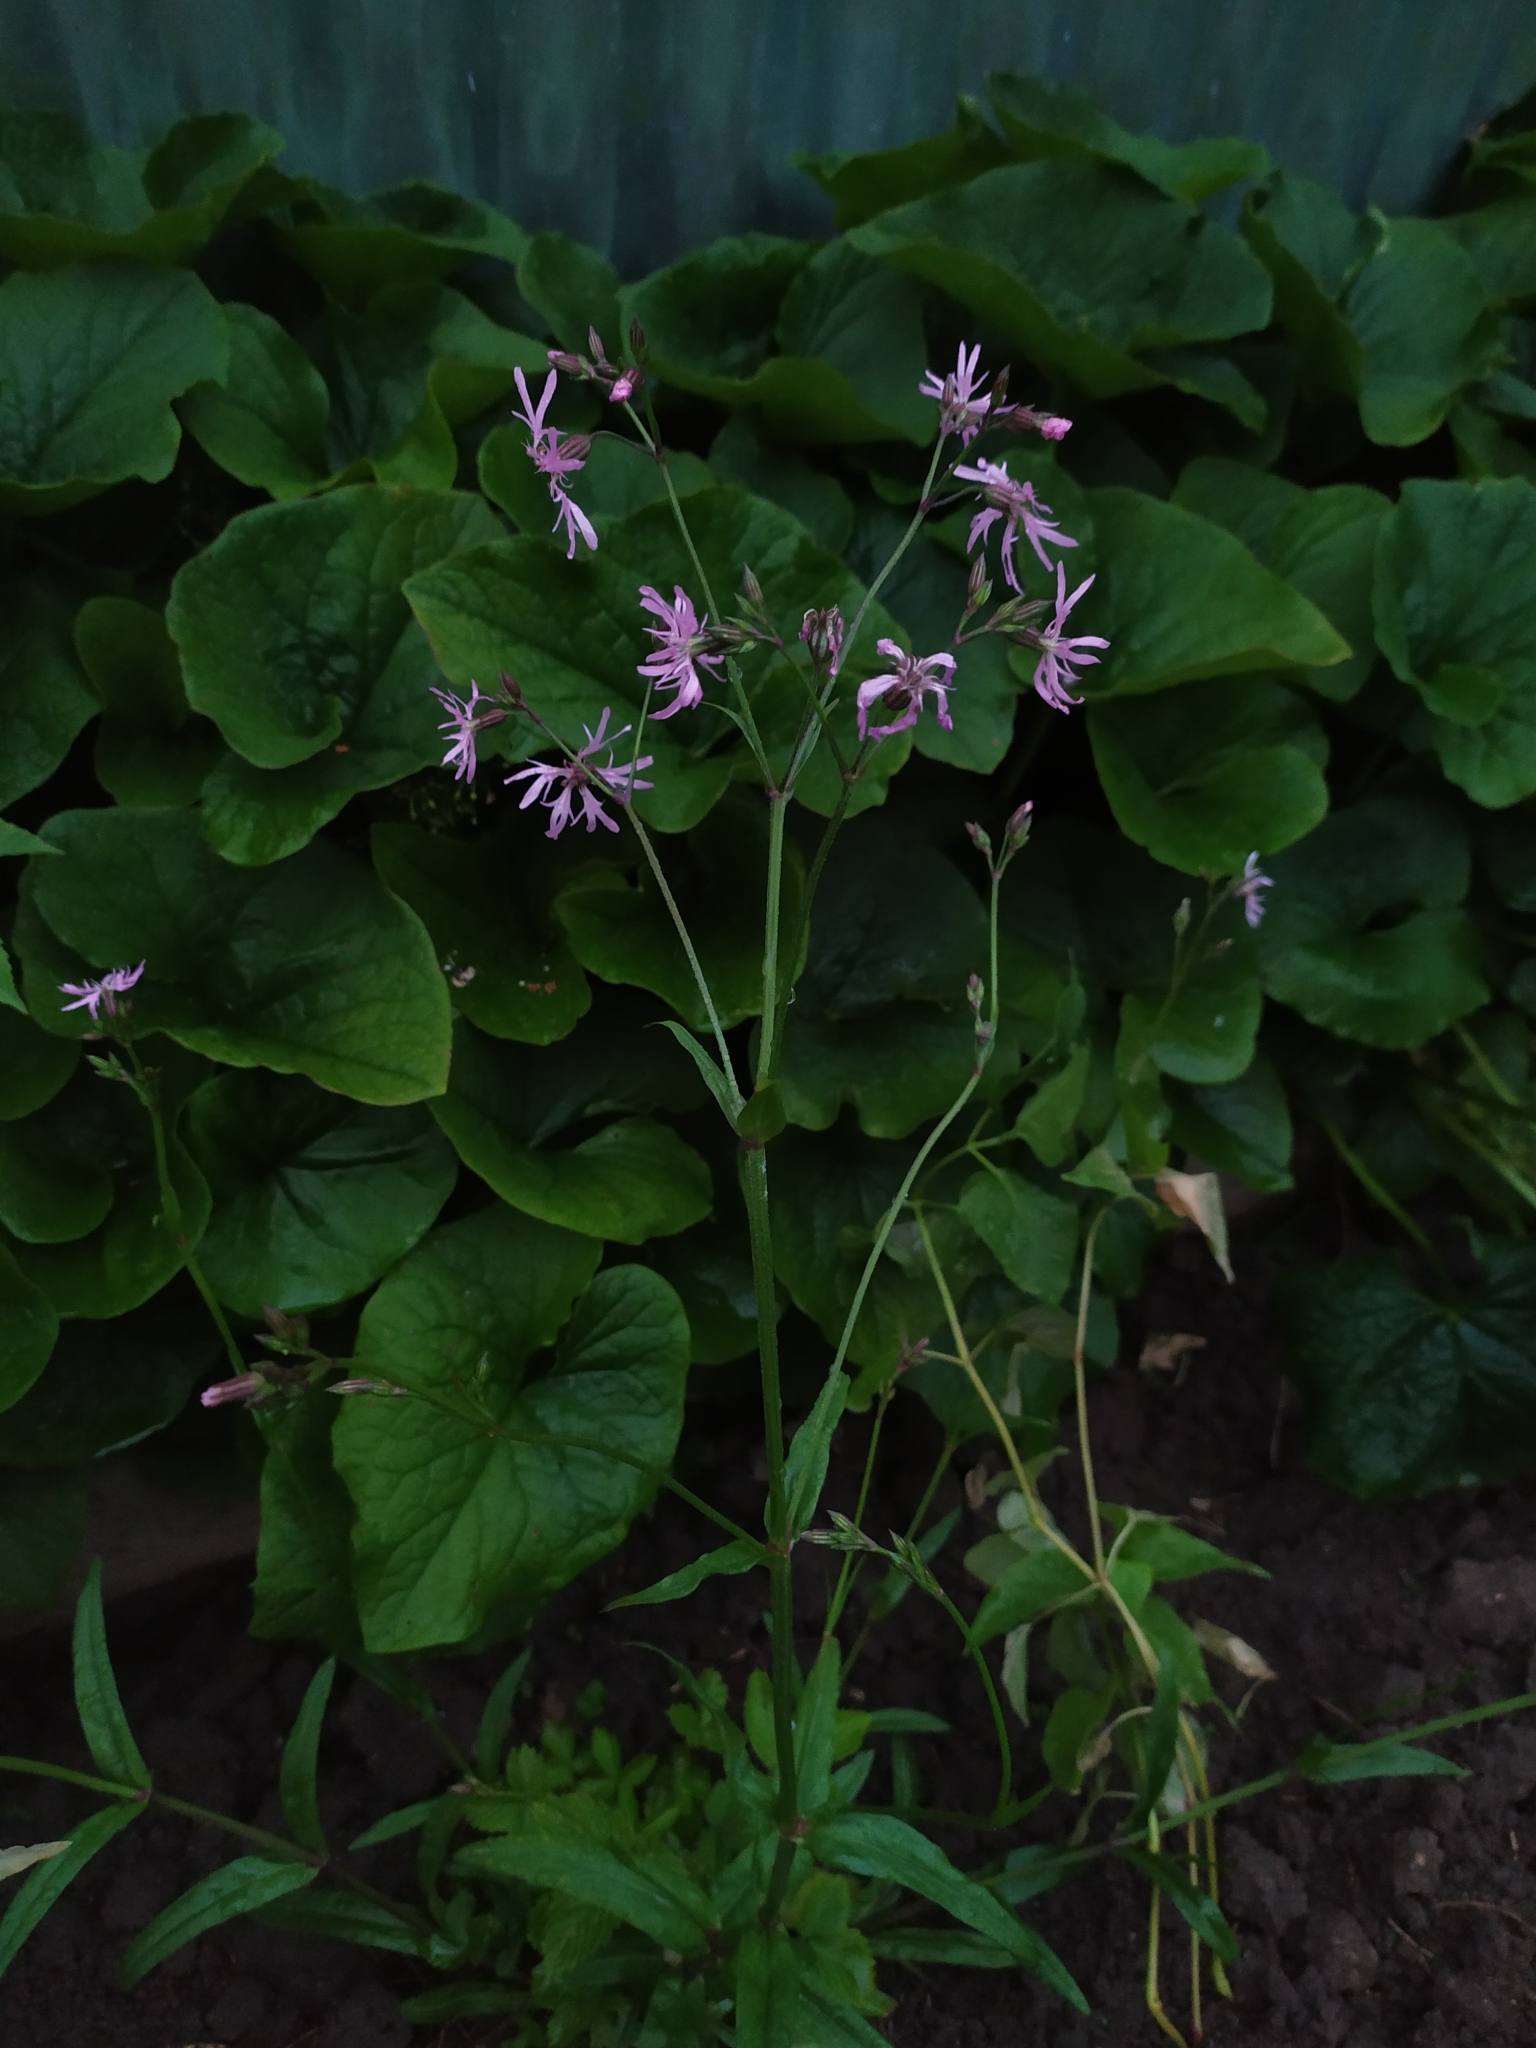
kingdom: Plantae
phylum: Tracheophyta
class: Magnoliopsida
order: Caryophyllales
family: Caryophyllaceae
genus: Silene
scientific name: Silene flos-cuculi
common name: Ragged-robin
